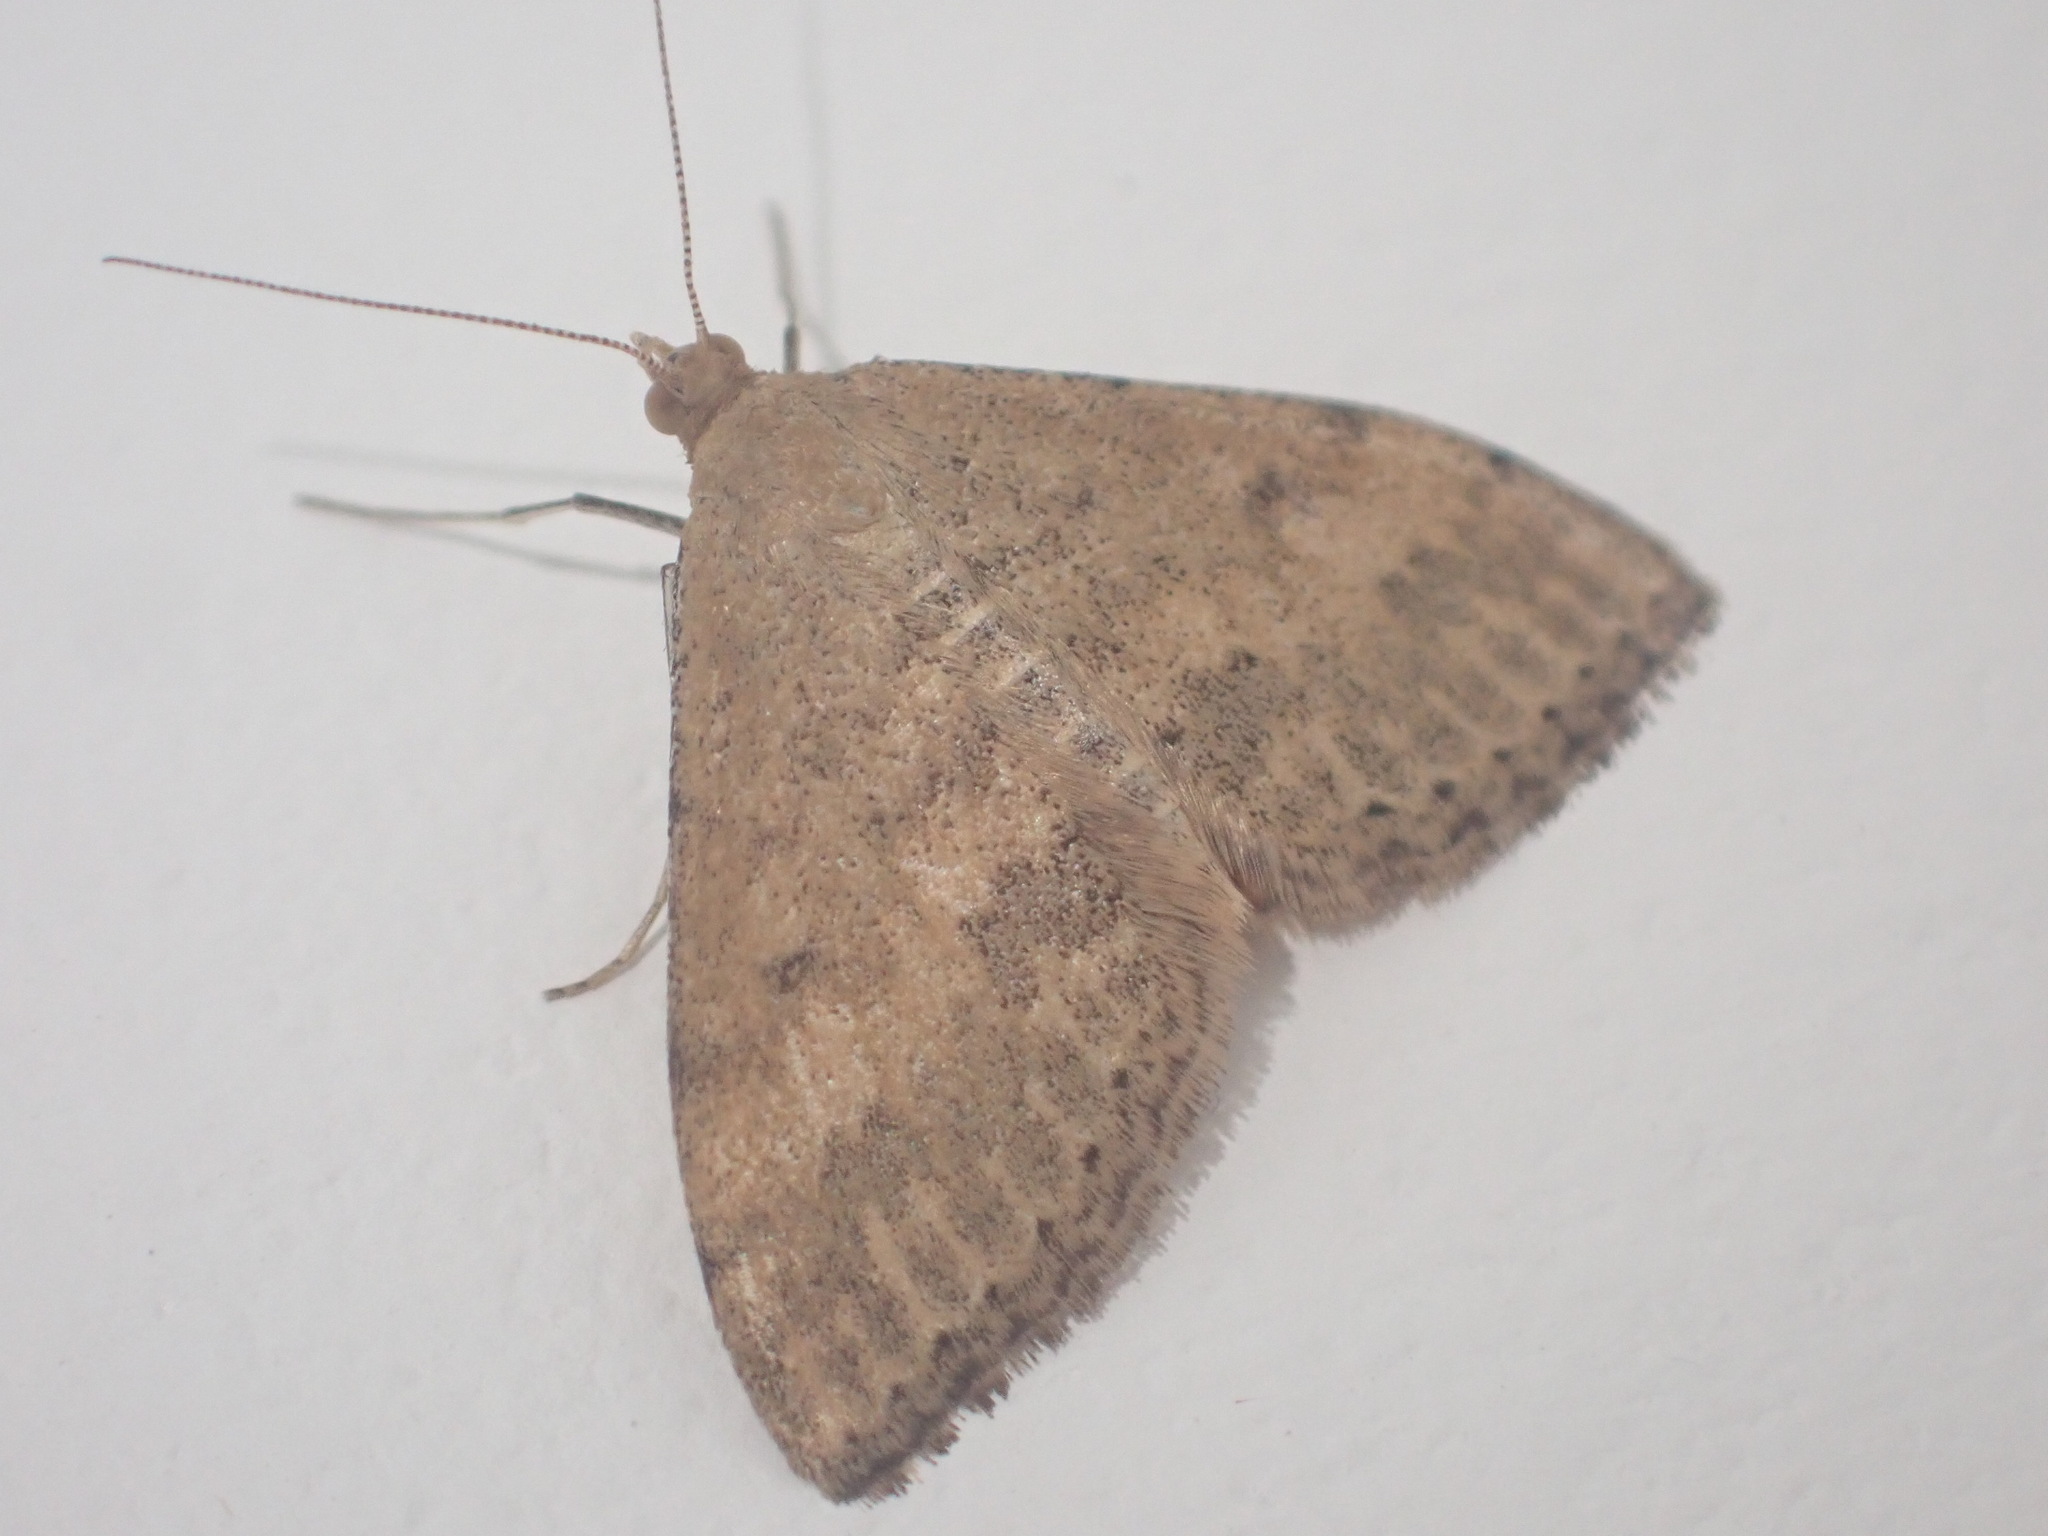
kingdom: Animalia
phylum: Arthropoda
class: Insecta
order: Lepidoptera
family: Geometridae
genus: Scopula
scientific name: Scopula rubraria
